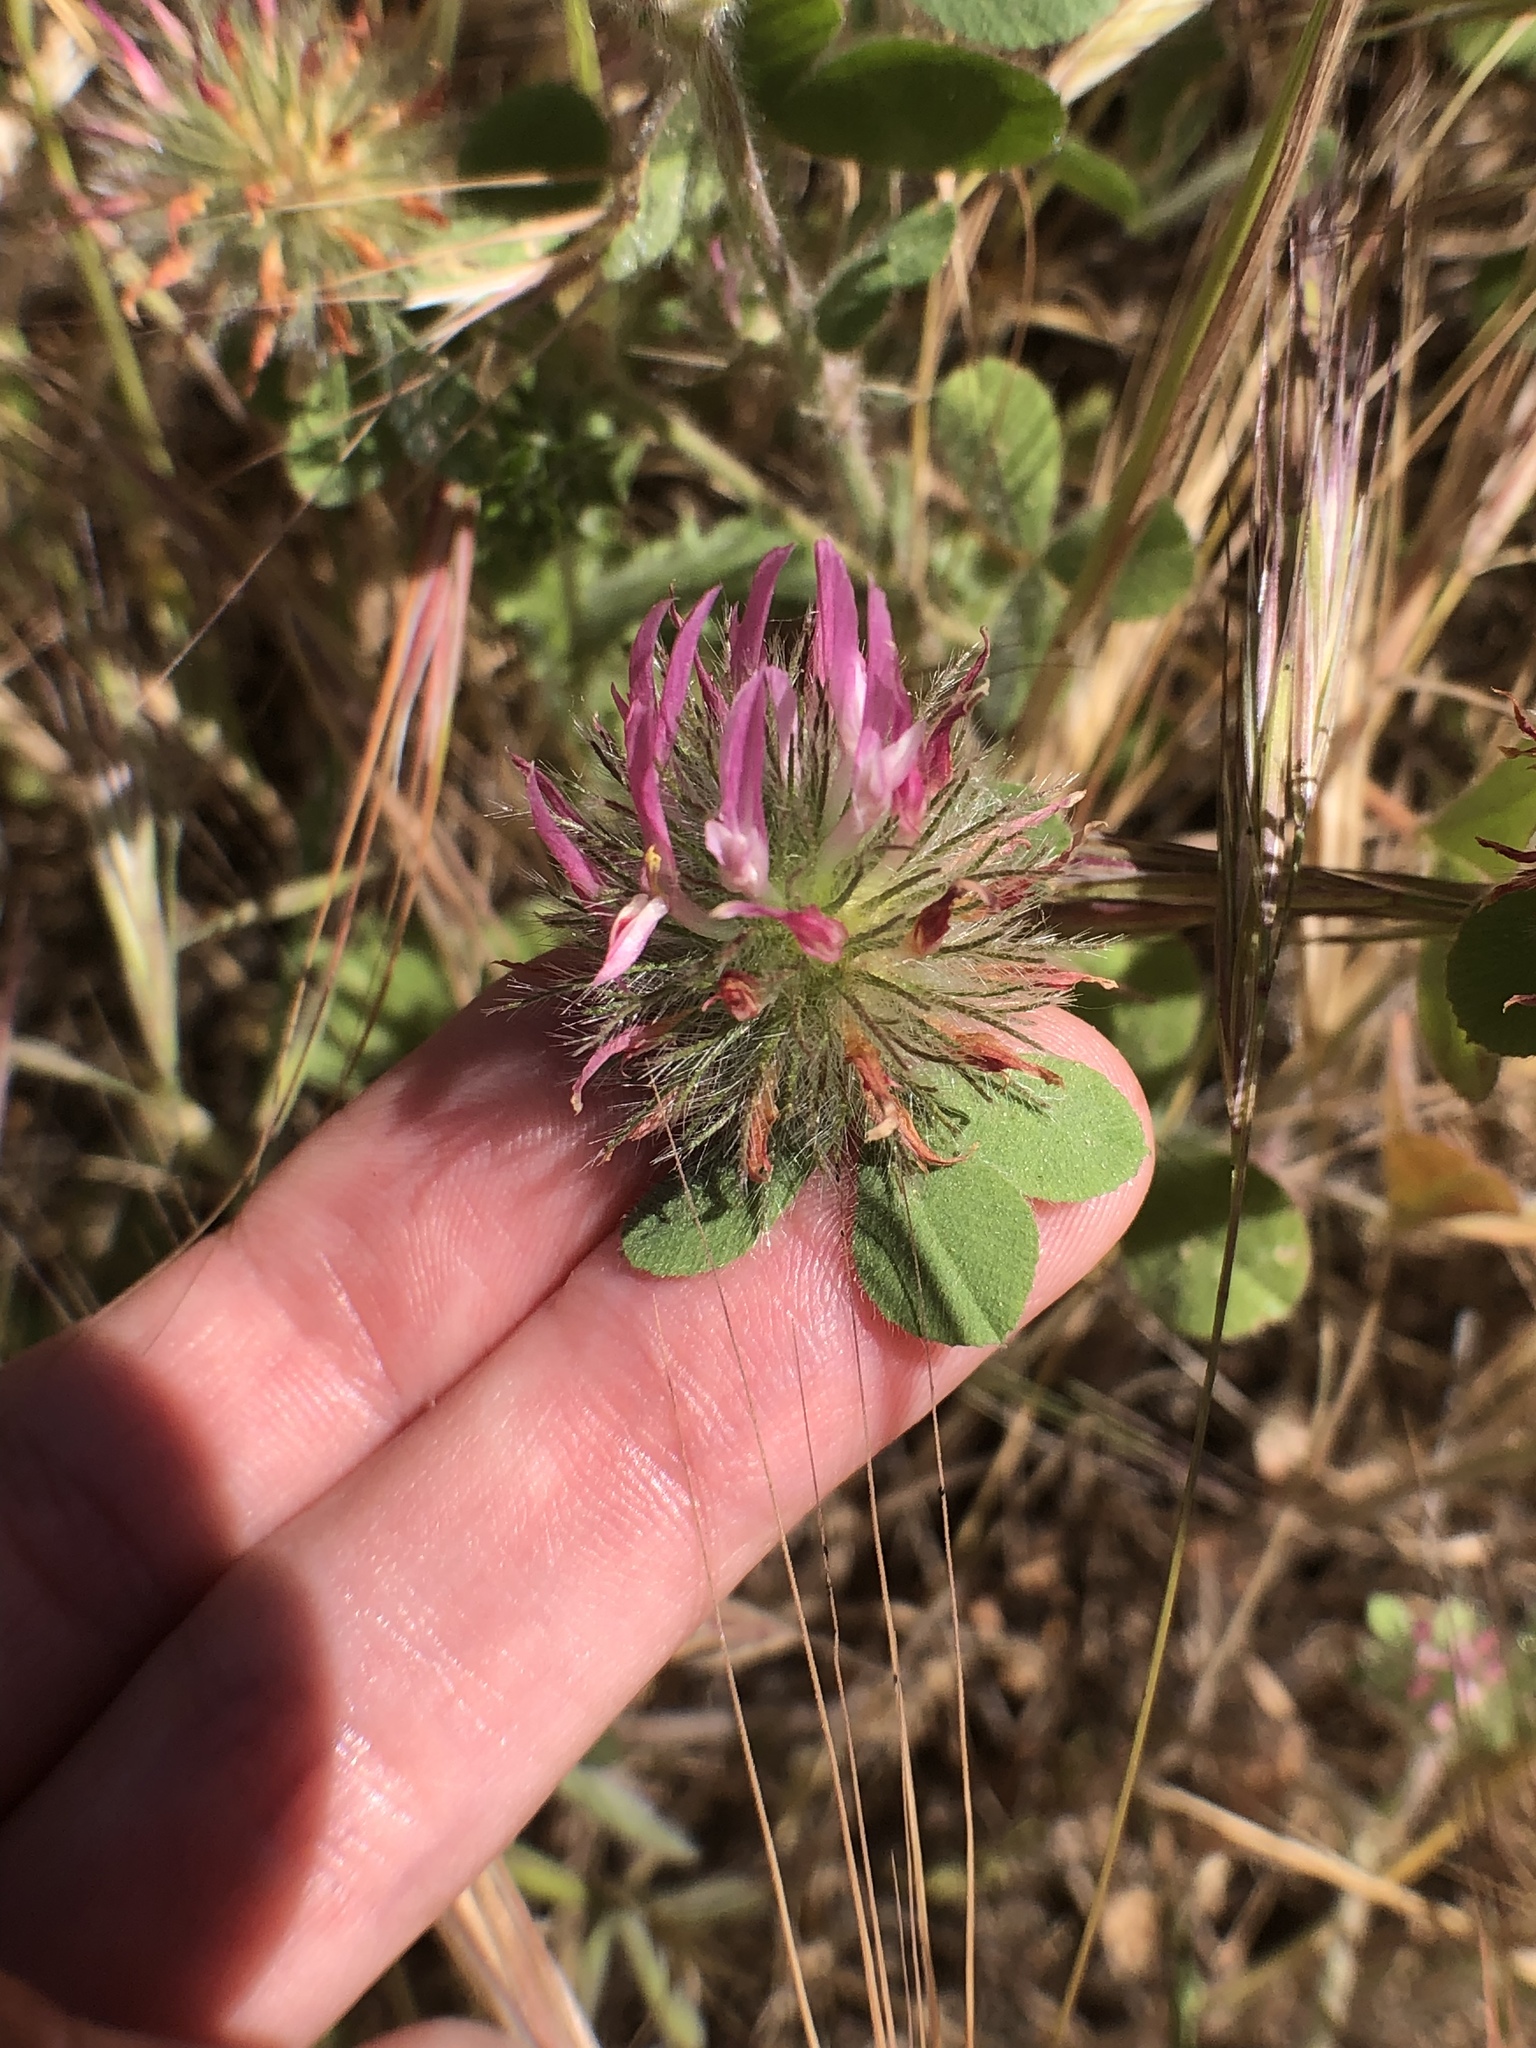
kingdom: Plantae
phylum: Tracheophyta
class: Magnoliopsida
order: Fabales
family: Fabaceae
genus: Trifolium
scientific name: Trifolium hirtum
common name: Rose clover
